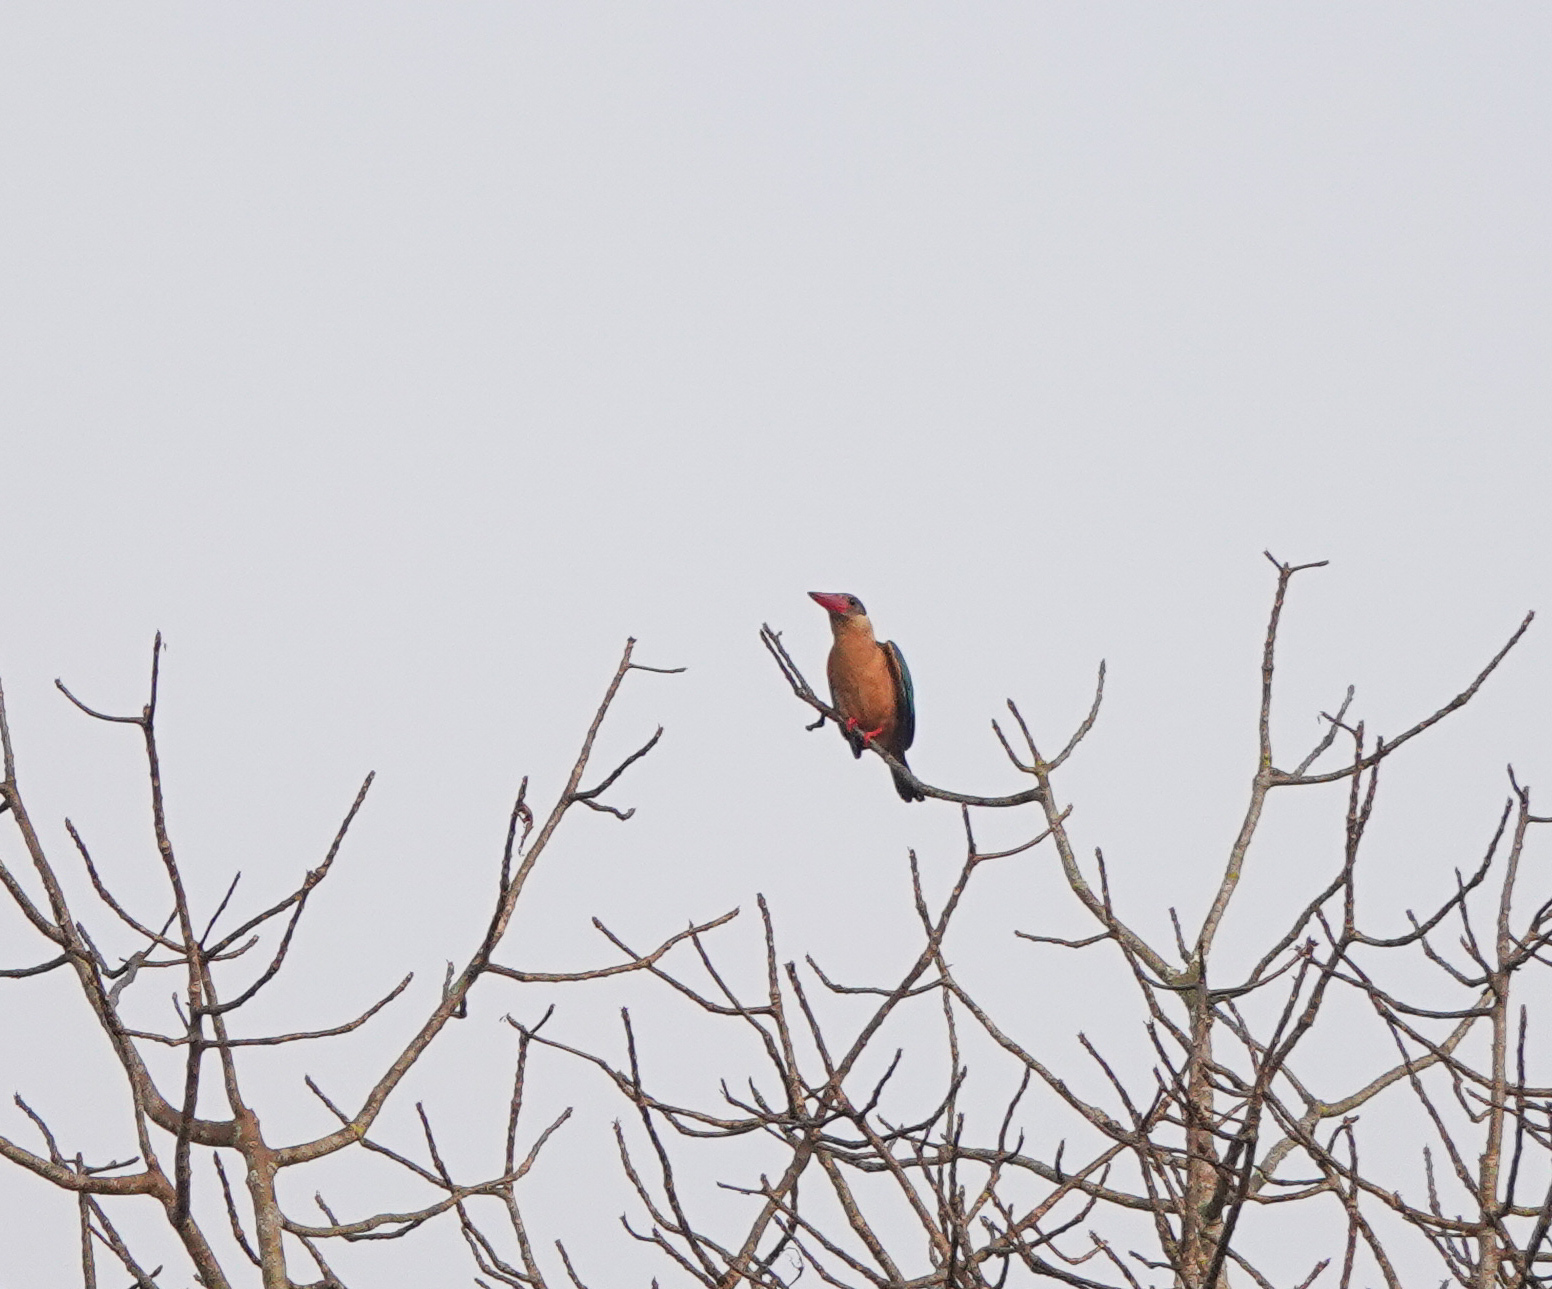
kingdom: Animalia
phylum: Chordata
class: Aves
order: Coraciiformes
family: Alcedinidae
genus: Pelargopsis
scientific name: Pelargopsis capensis
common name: Stork-billed kingfisher
